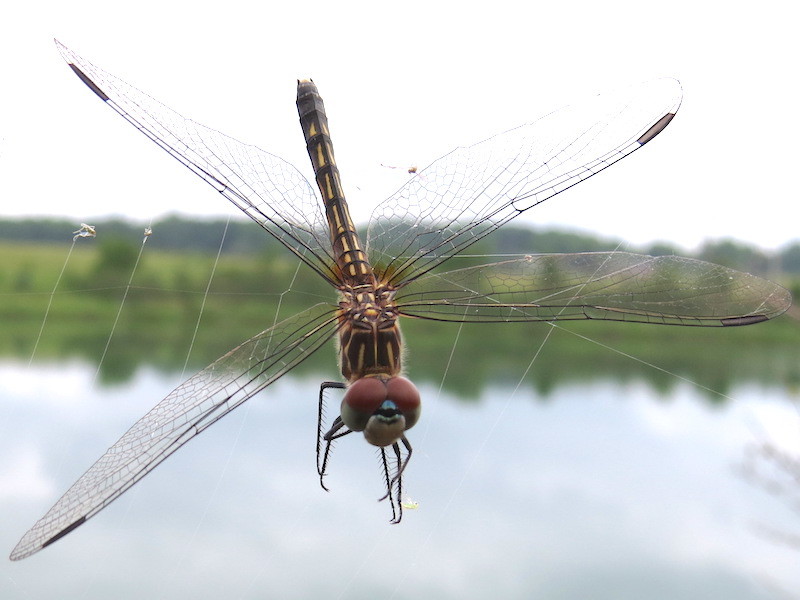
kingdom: Animalia
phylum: Arthropoda
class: Insecta
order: Odonata
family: Libellulidae
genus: Pachydiplax
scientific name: Pachydiplax longipennis
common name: Blue dasher
